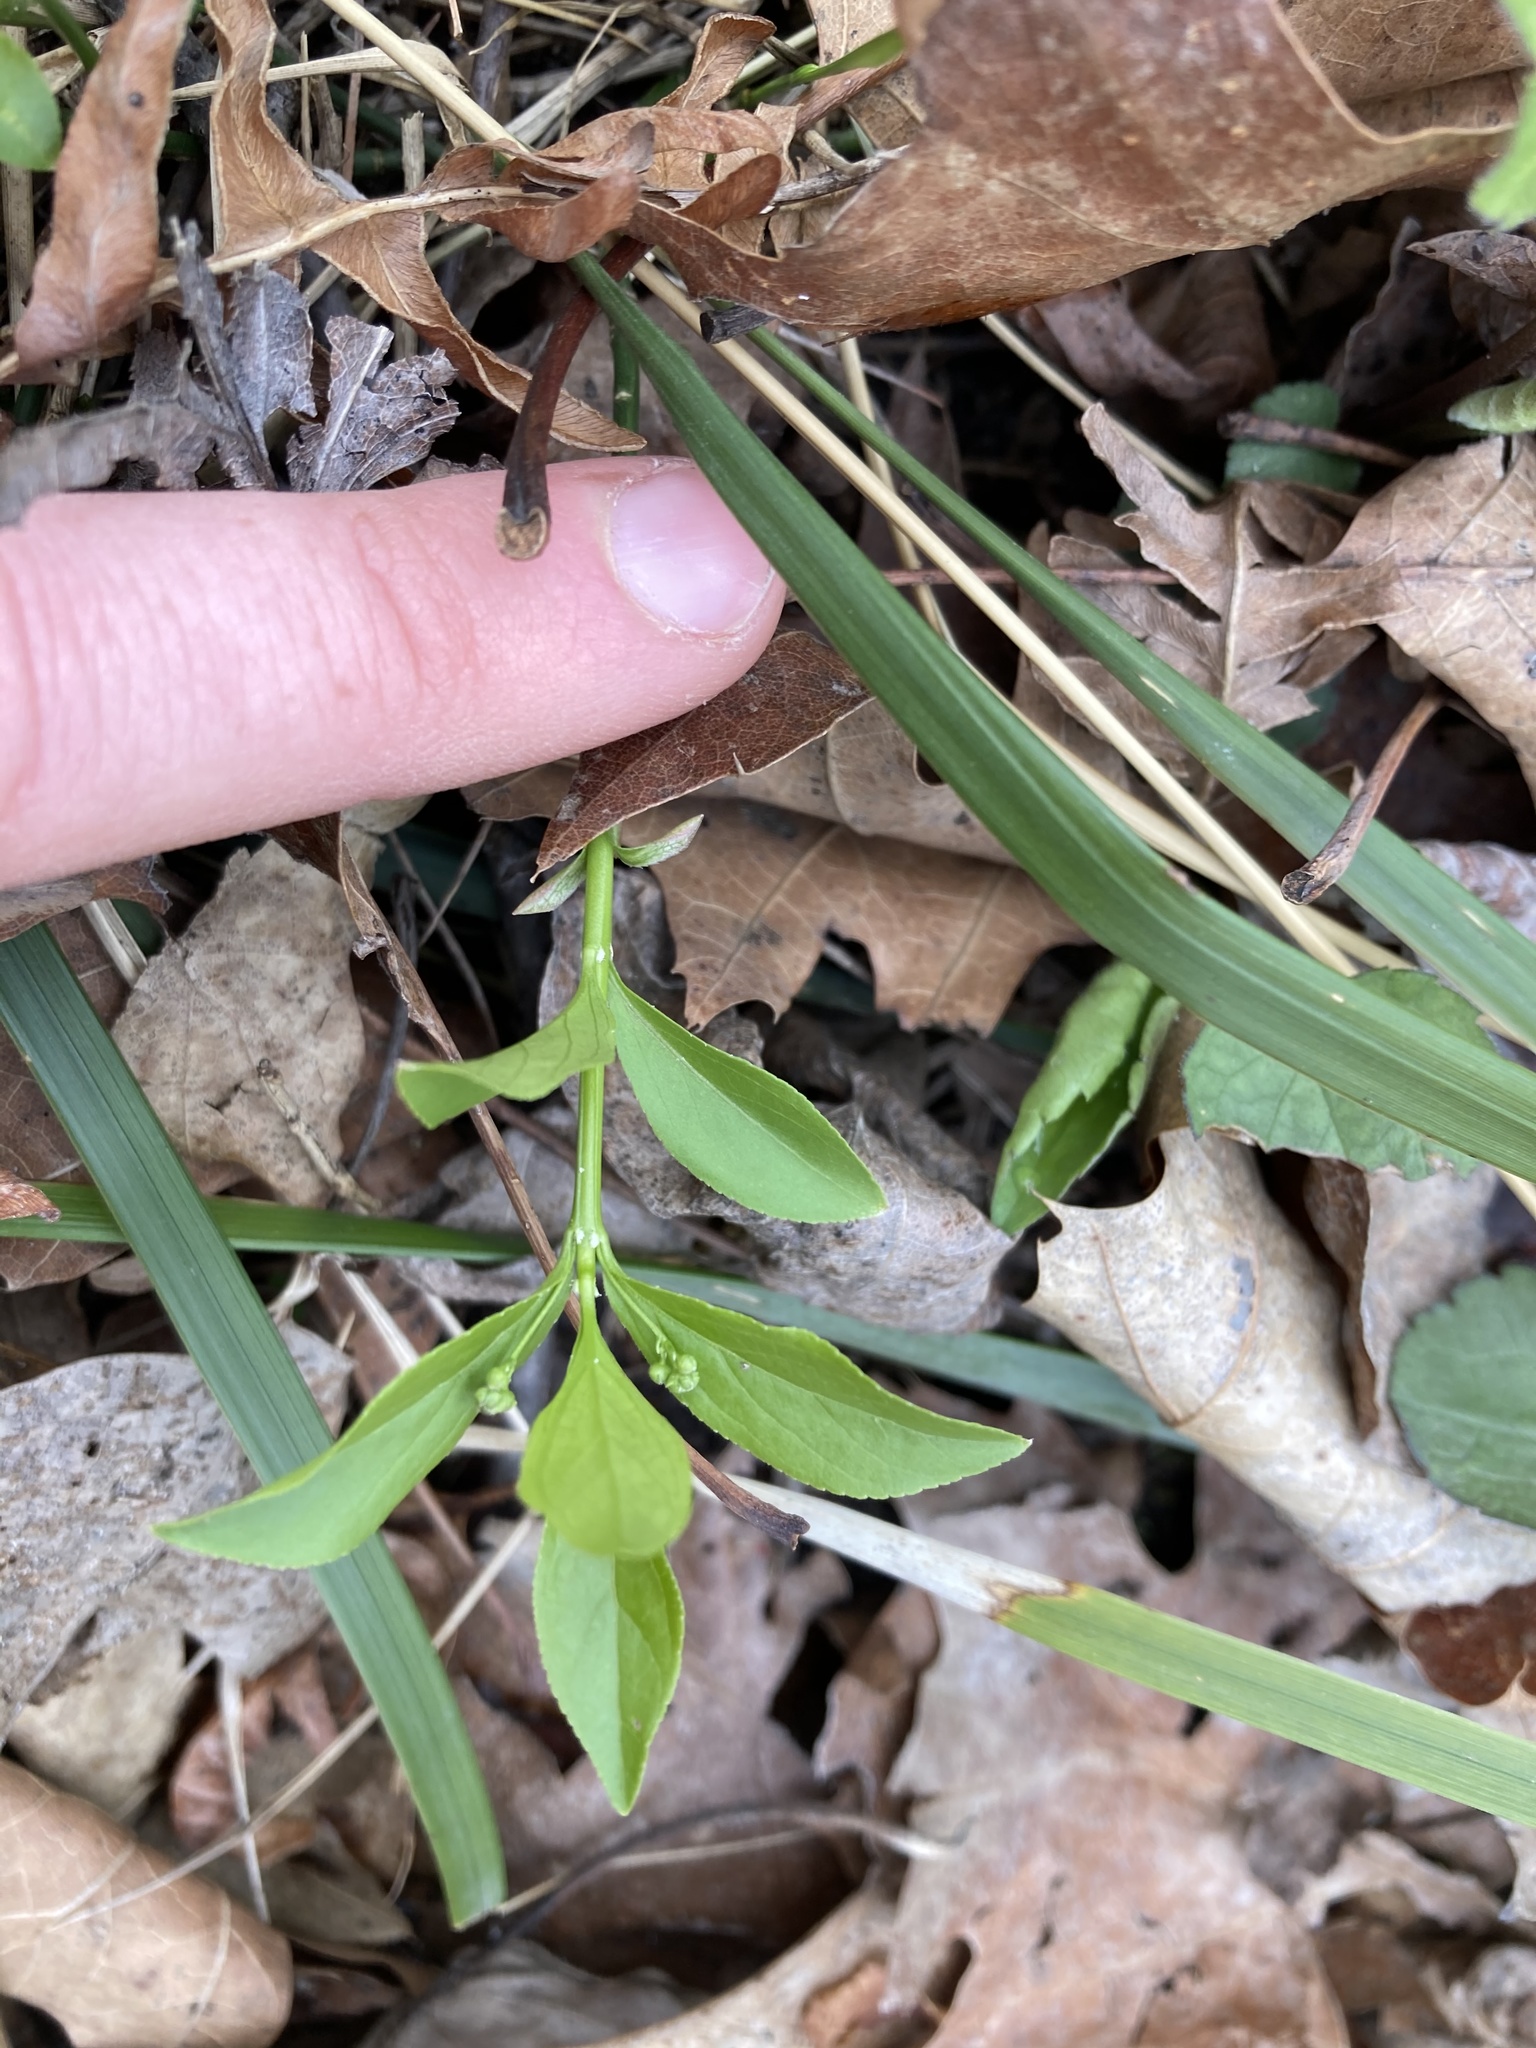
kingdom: Plantae
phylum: Tracheophyta
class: Magnoliopsida
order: Celastrales
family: Celastraceae
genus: Euonymus
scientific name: Euonymus obovatus
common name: Running strawberry-bush
